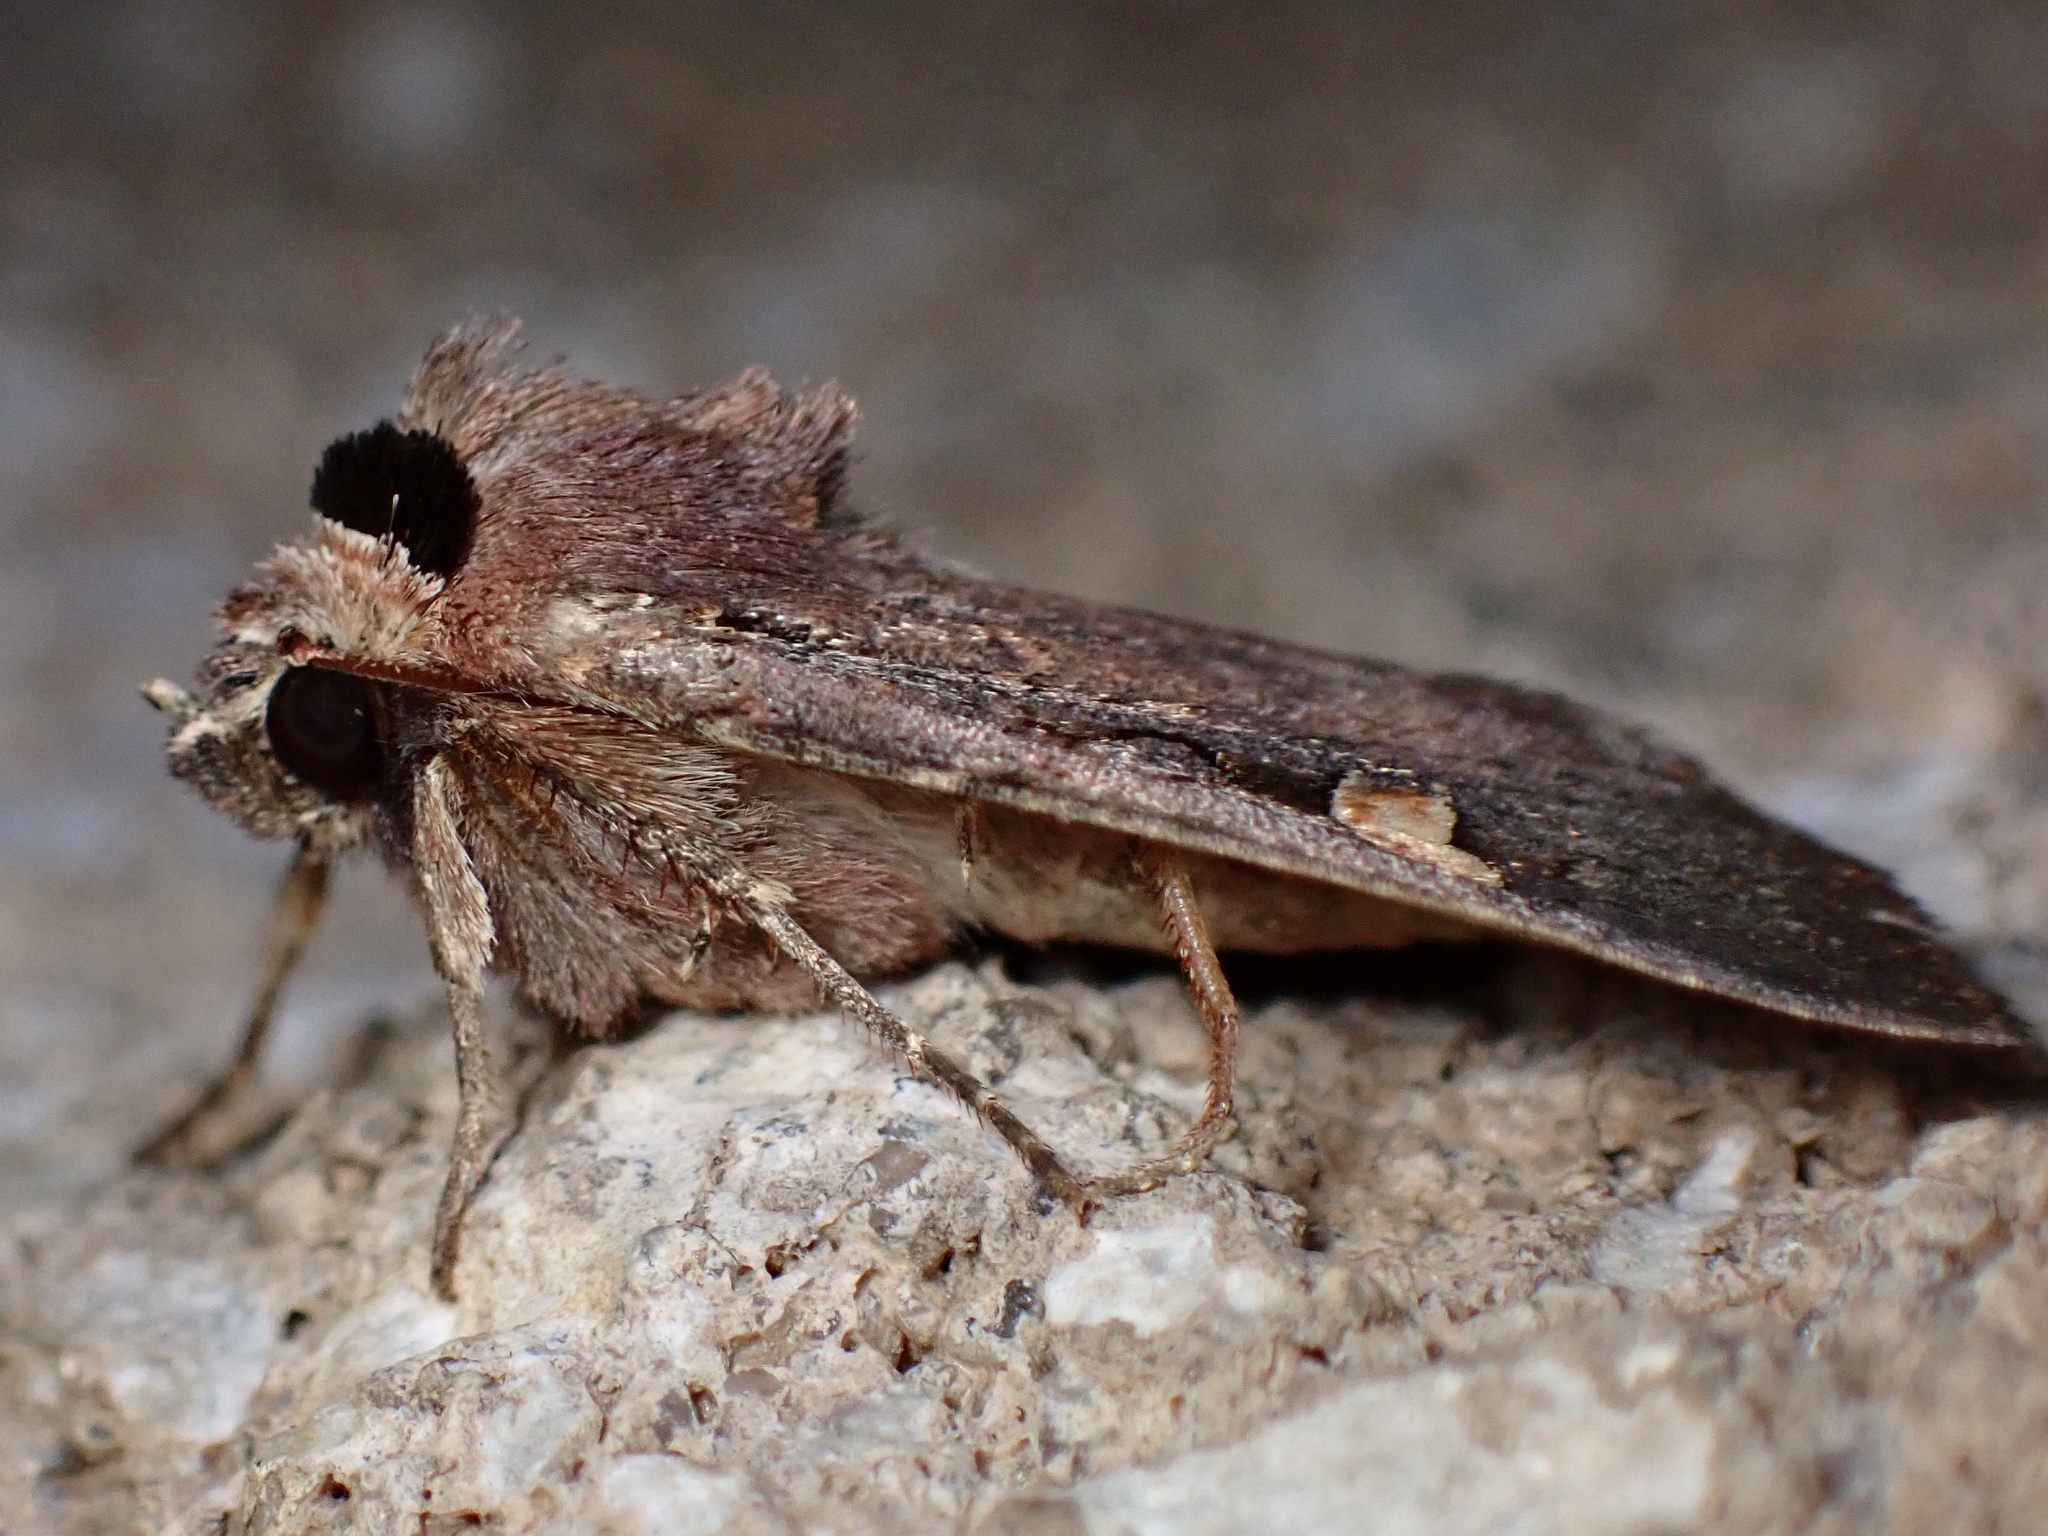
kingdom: Animalia
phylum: Arthropoda
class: Insecta
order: Lepidoptera
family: Noctuidae
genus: Adelphagrotis
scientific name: Adelphagrotis indeterminata
